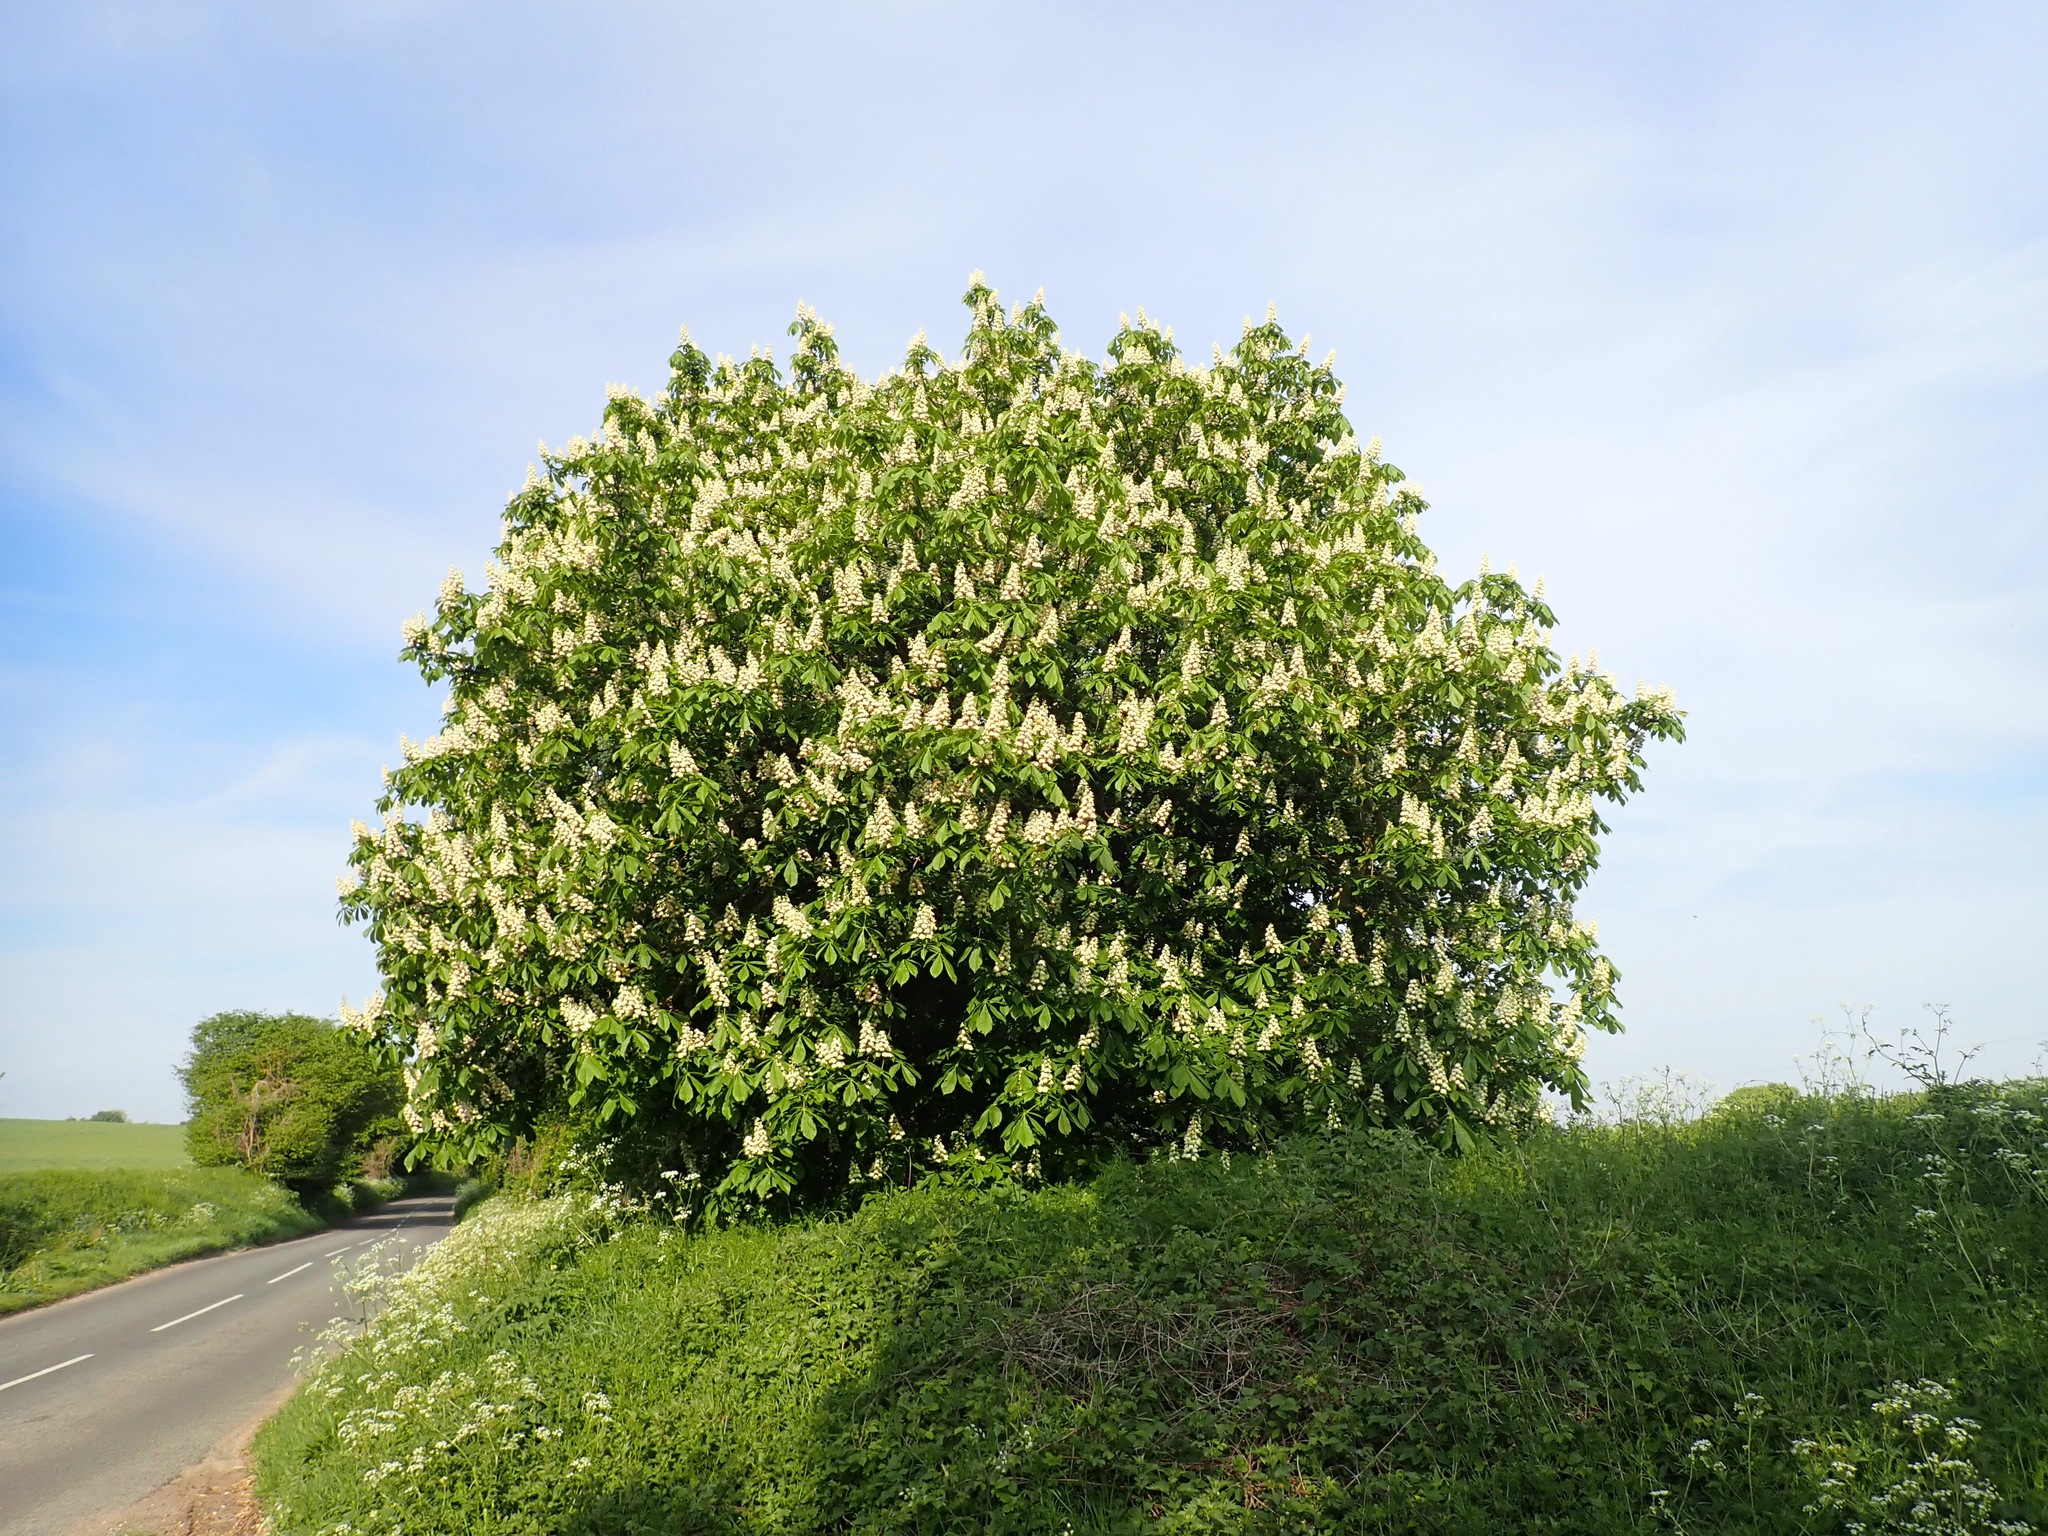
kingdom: Plantae
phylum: Tracheophyta
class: Magnoliopsida
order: Sapindales
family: Sapindaceae
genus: Aesculus
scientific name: Aesculus hippocastanum
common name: Horse-chestnut
